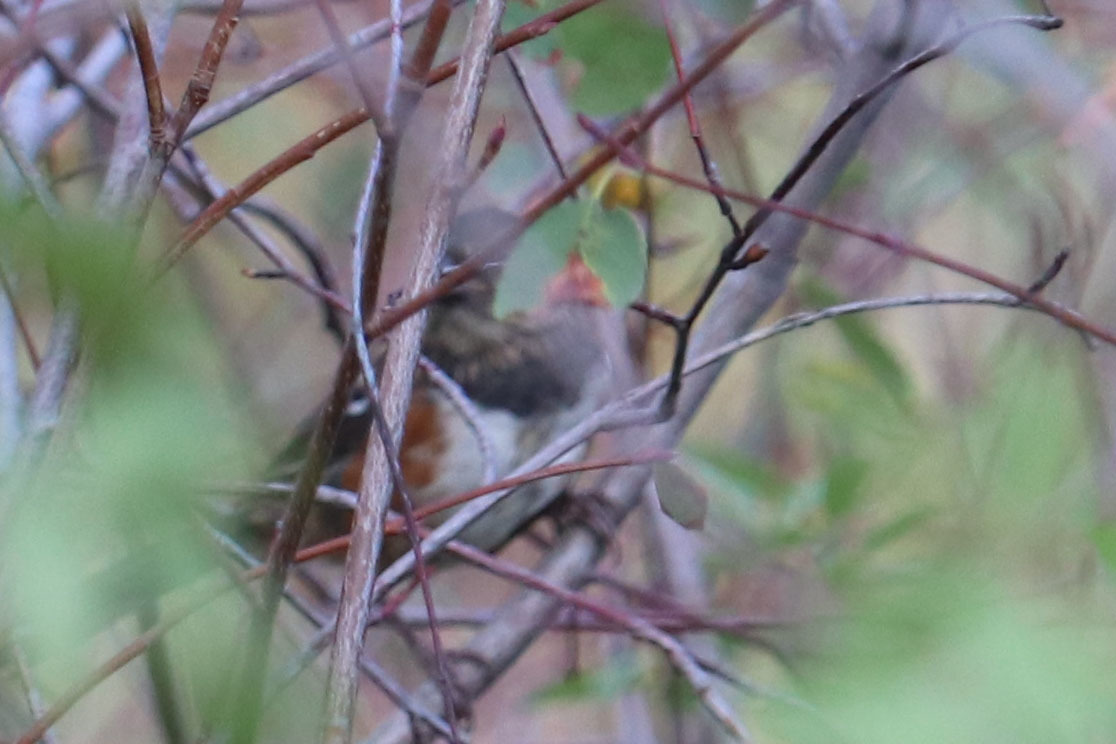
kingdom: Animalia
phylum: Chordata
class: Aves
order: Passeriformes
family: Passerellidae
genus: Pipilo
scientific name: Pipilo maculatus
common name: Spotted towhee
